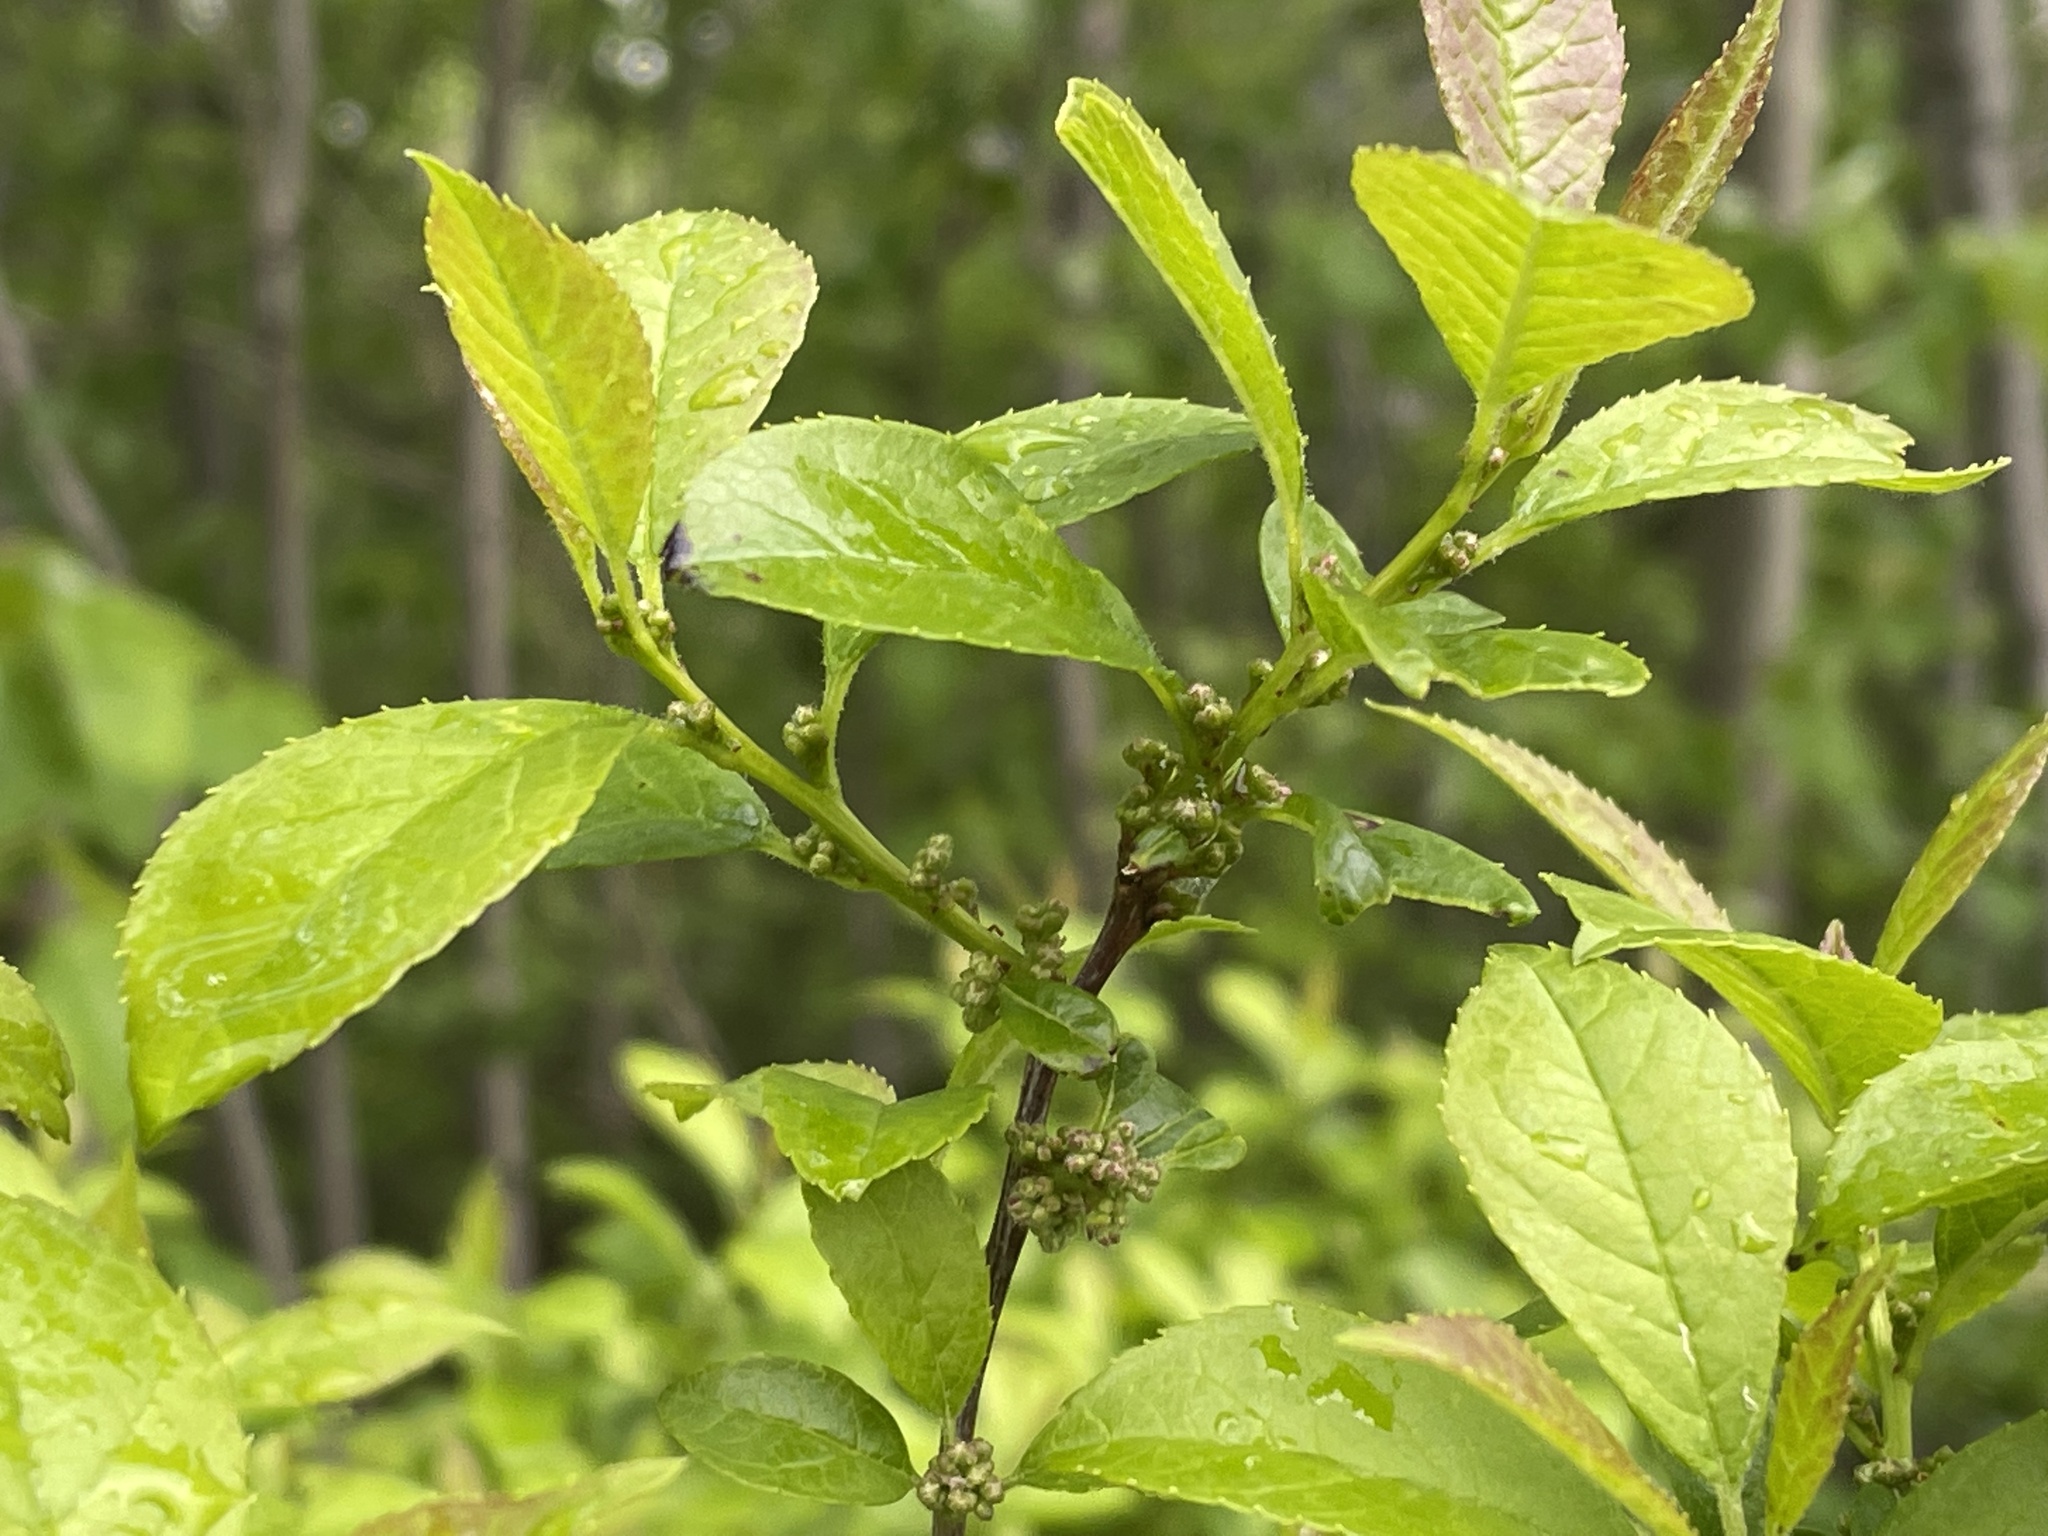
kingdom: Plantae
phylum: Tracheophyta
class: Magnoliopsida
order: Aquifoliales
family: Aquifoliaceae
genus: Ilex
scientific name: Ilex verticillata
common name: Virginia winterberry
